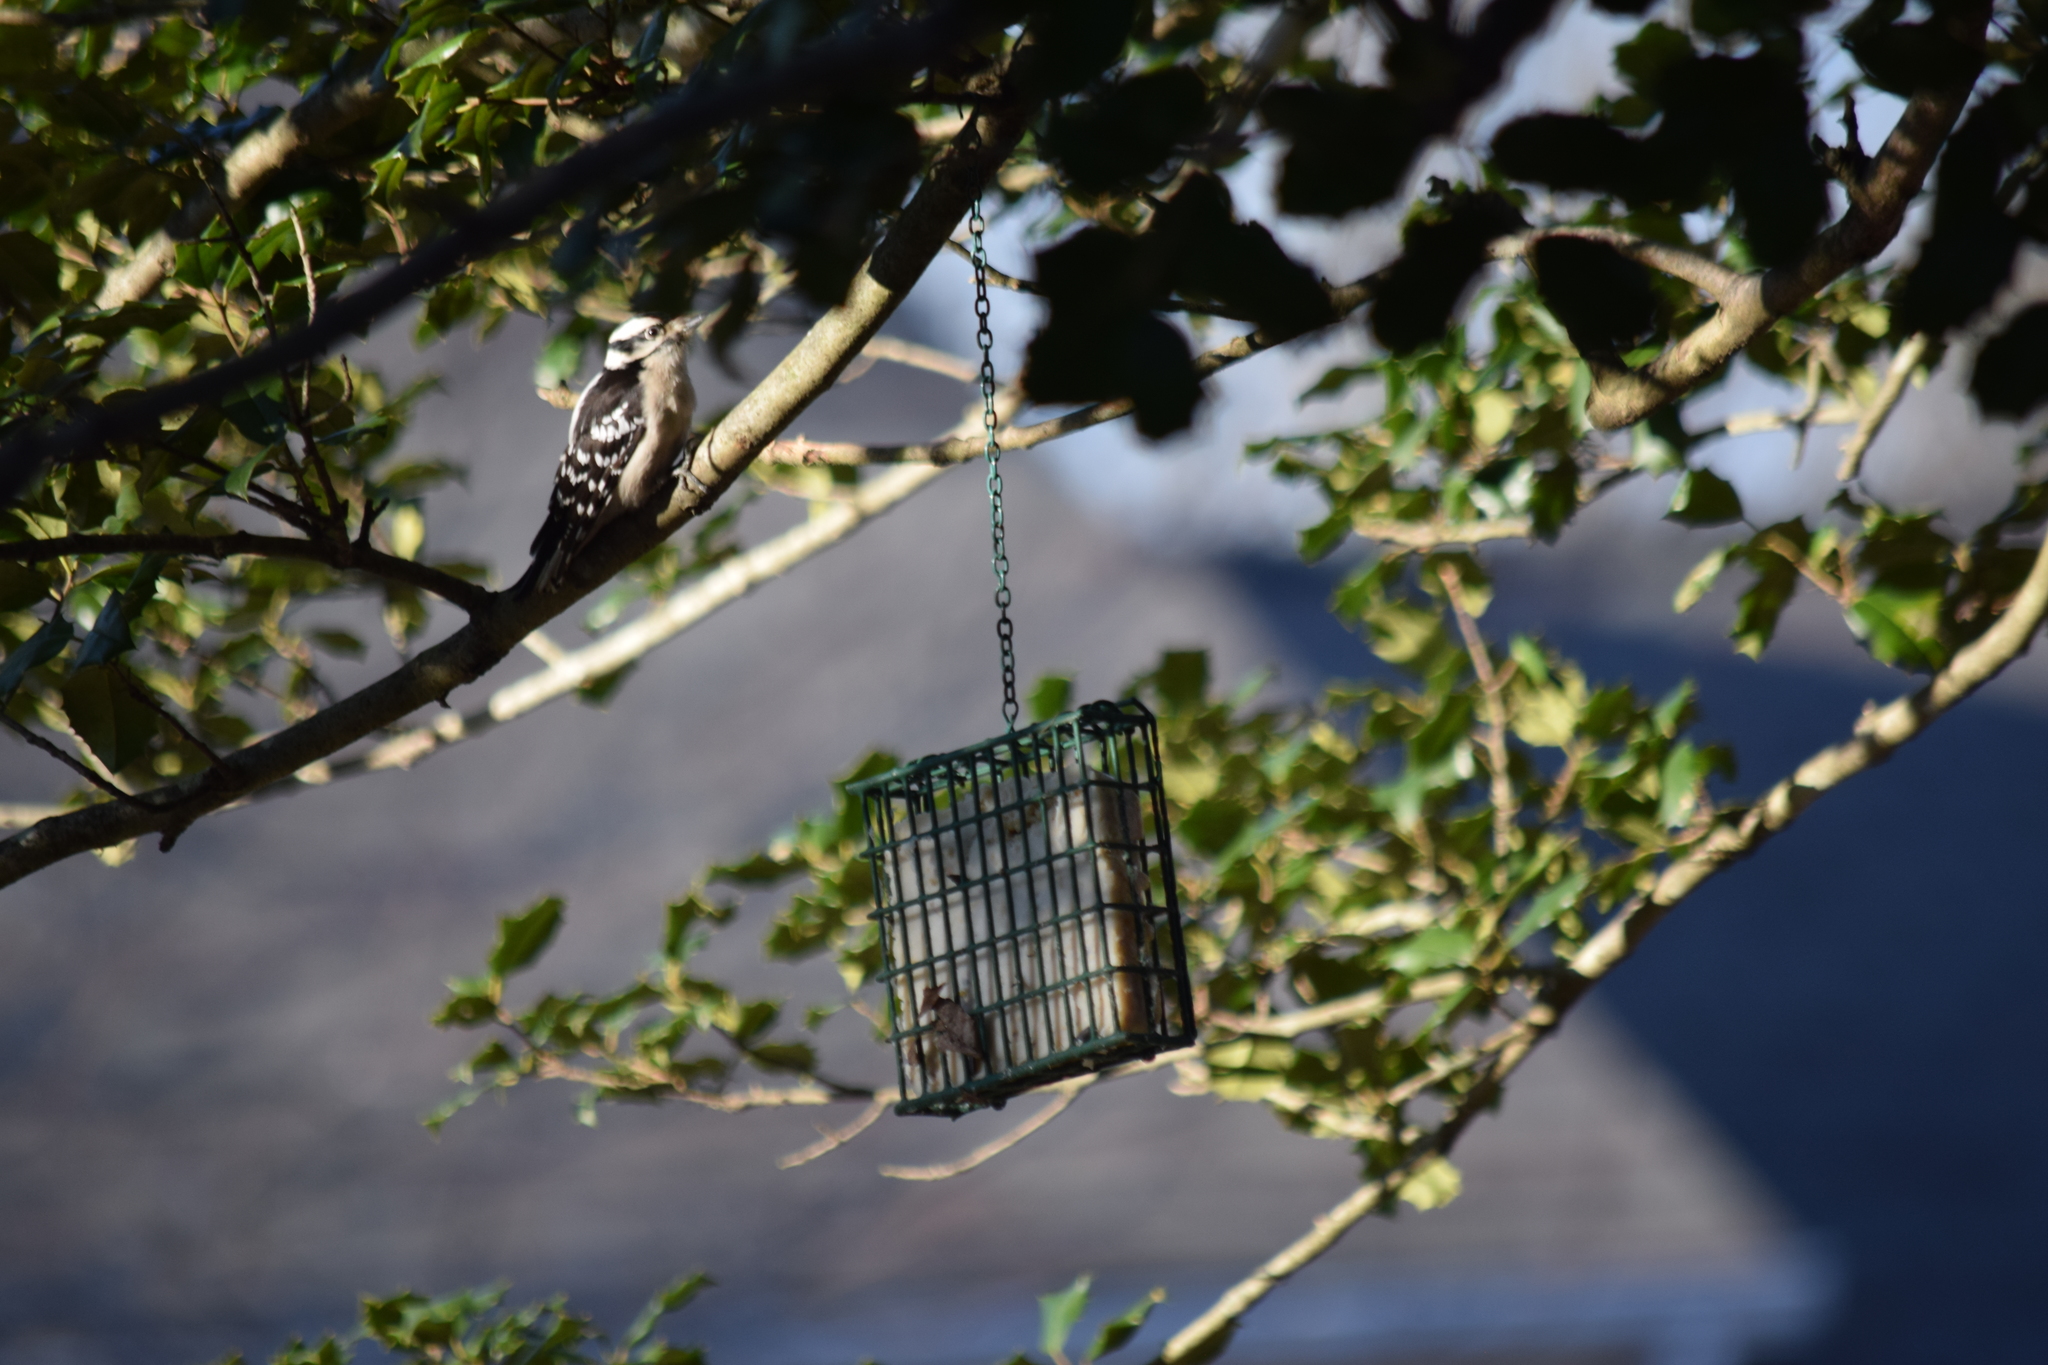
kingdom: Animalia
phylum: Chordata
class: Aves
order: Piciformes
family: Picidae
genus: Dryobates
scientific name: Dryobates pubescens
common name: Downy woodpecker
